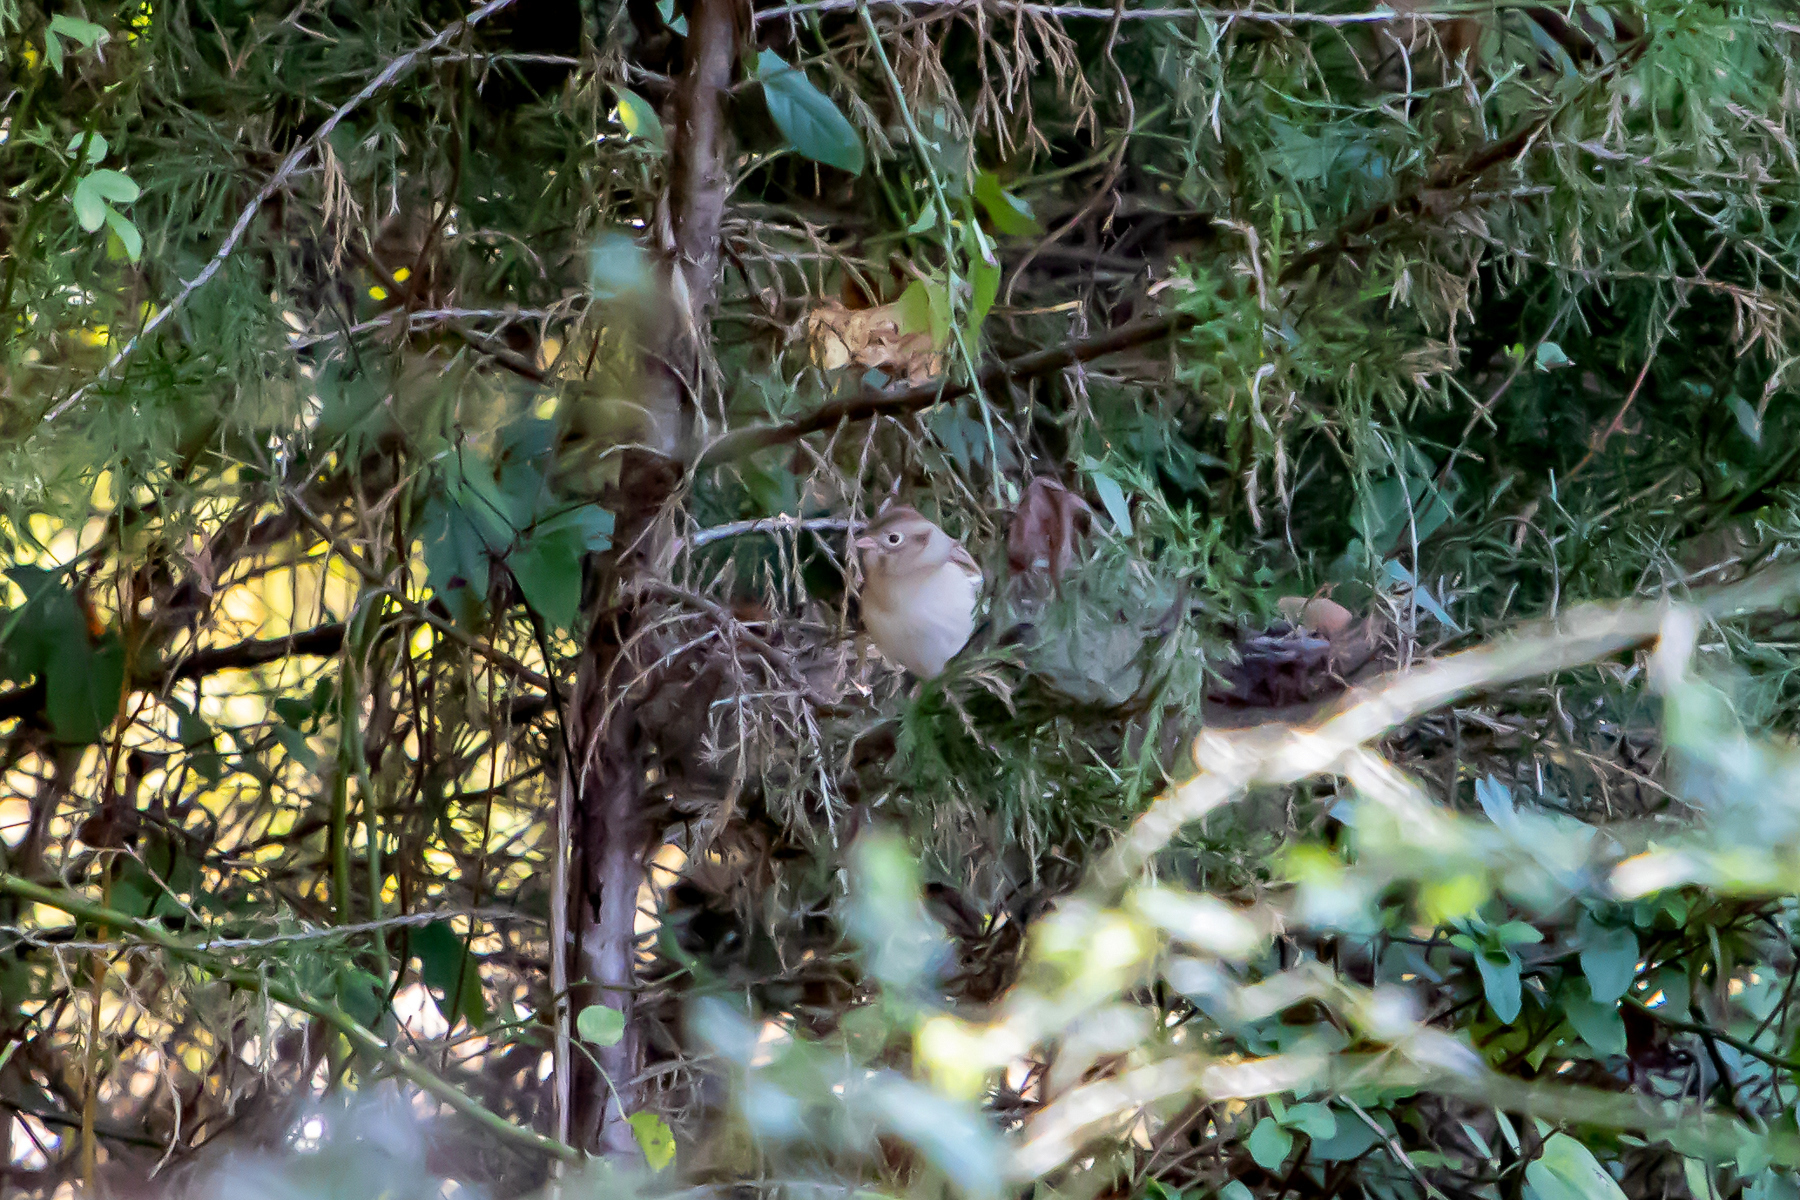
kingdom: Animalia
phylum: Chordata
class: Aves
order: Passeriformes
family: Passerellidae
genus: Spizella
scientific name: Spizella pusilla
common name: Field sparrow
